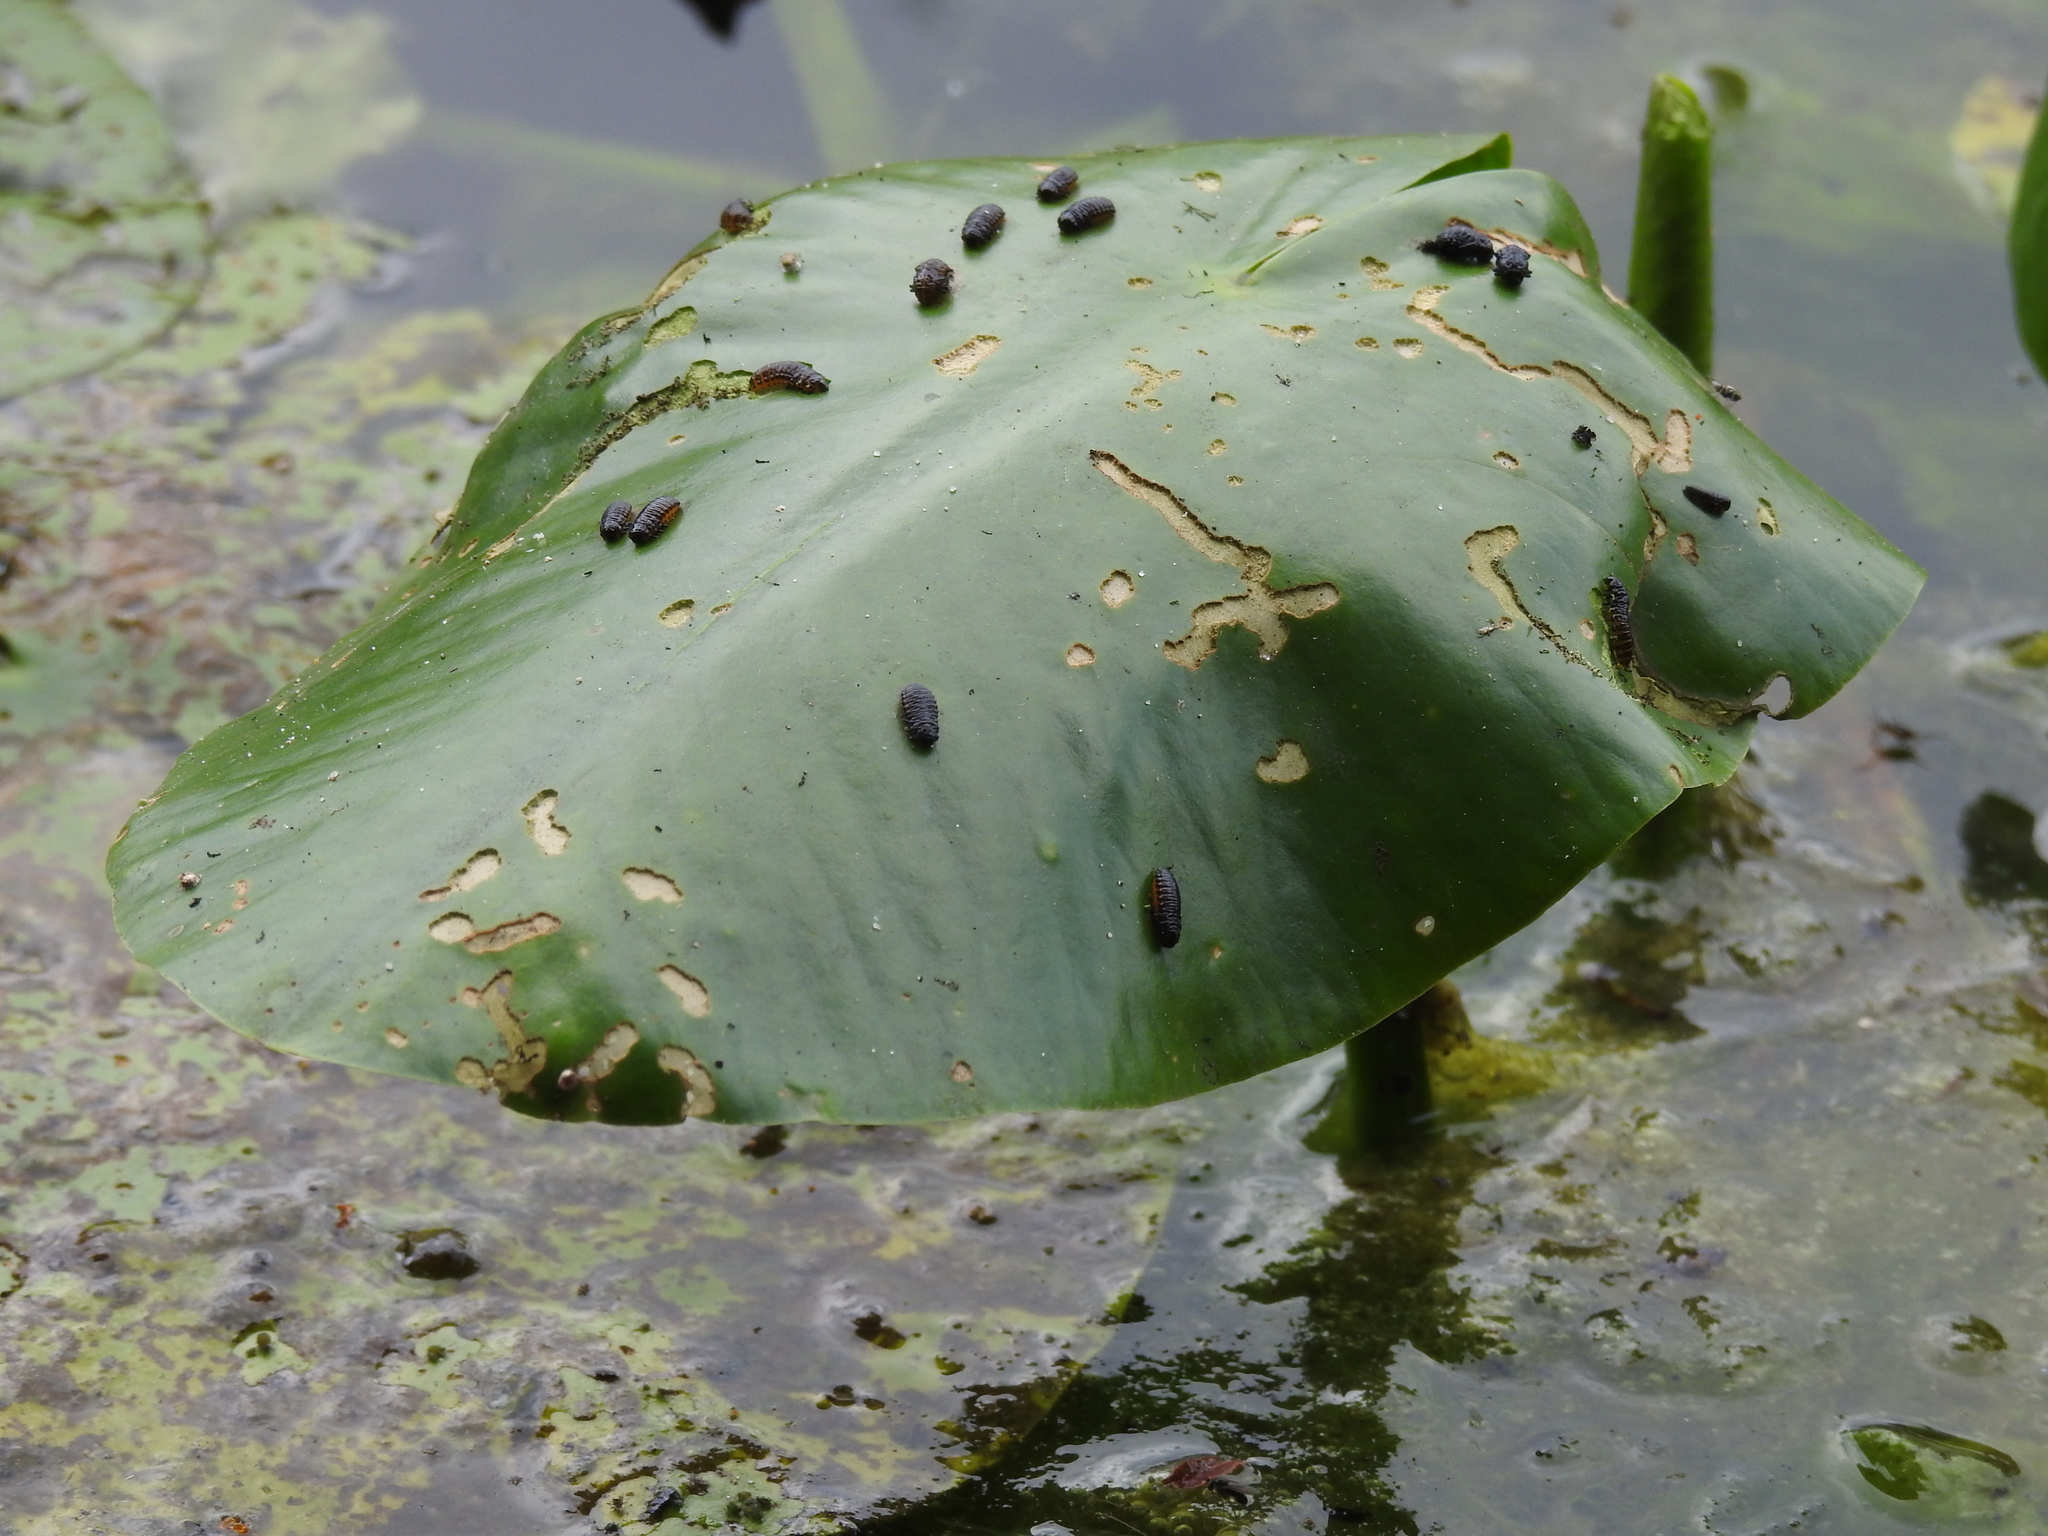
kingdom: Animalia
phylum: Arthropoda
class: Insecta
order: Coleoptera
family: Chrysomelidae
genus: Galerucella
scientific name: Galerucella nymphaeae
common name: Leaf beetle
